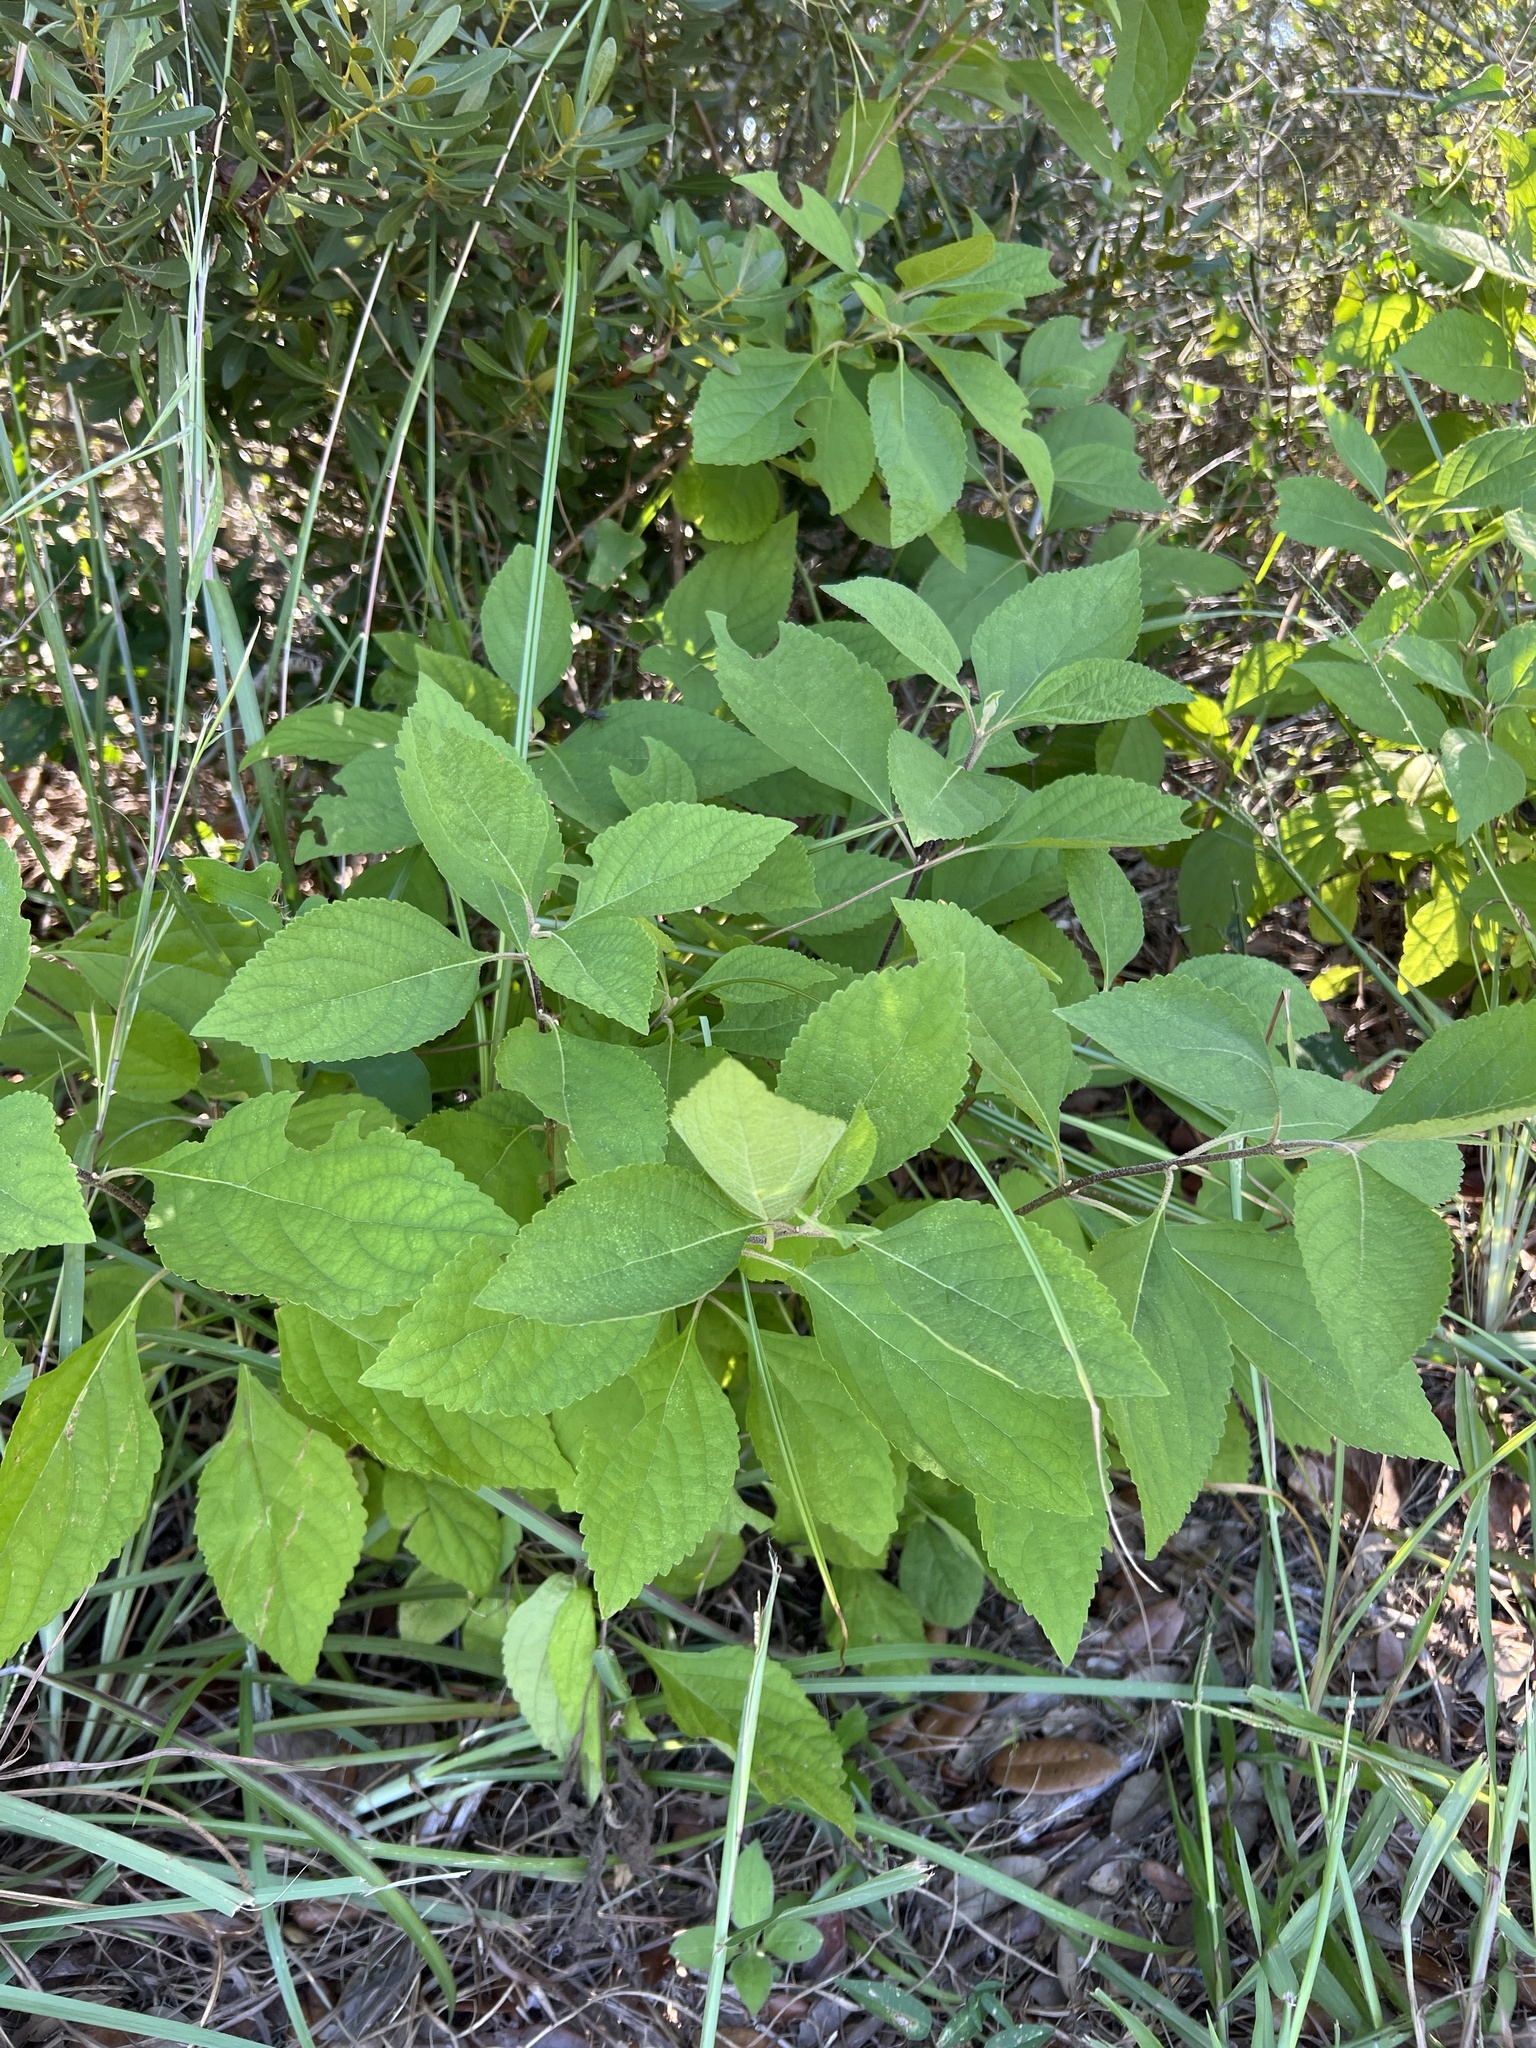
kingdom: Plantae
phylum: Tracheophyta
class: Magnoliopsida
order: Lamiales
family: Lamiaceae
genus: Callicarpa
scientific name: Callicarpa americana
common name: American beautyberry
